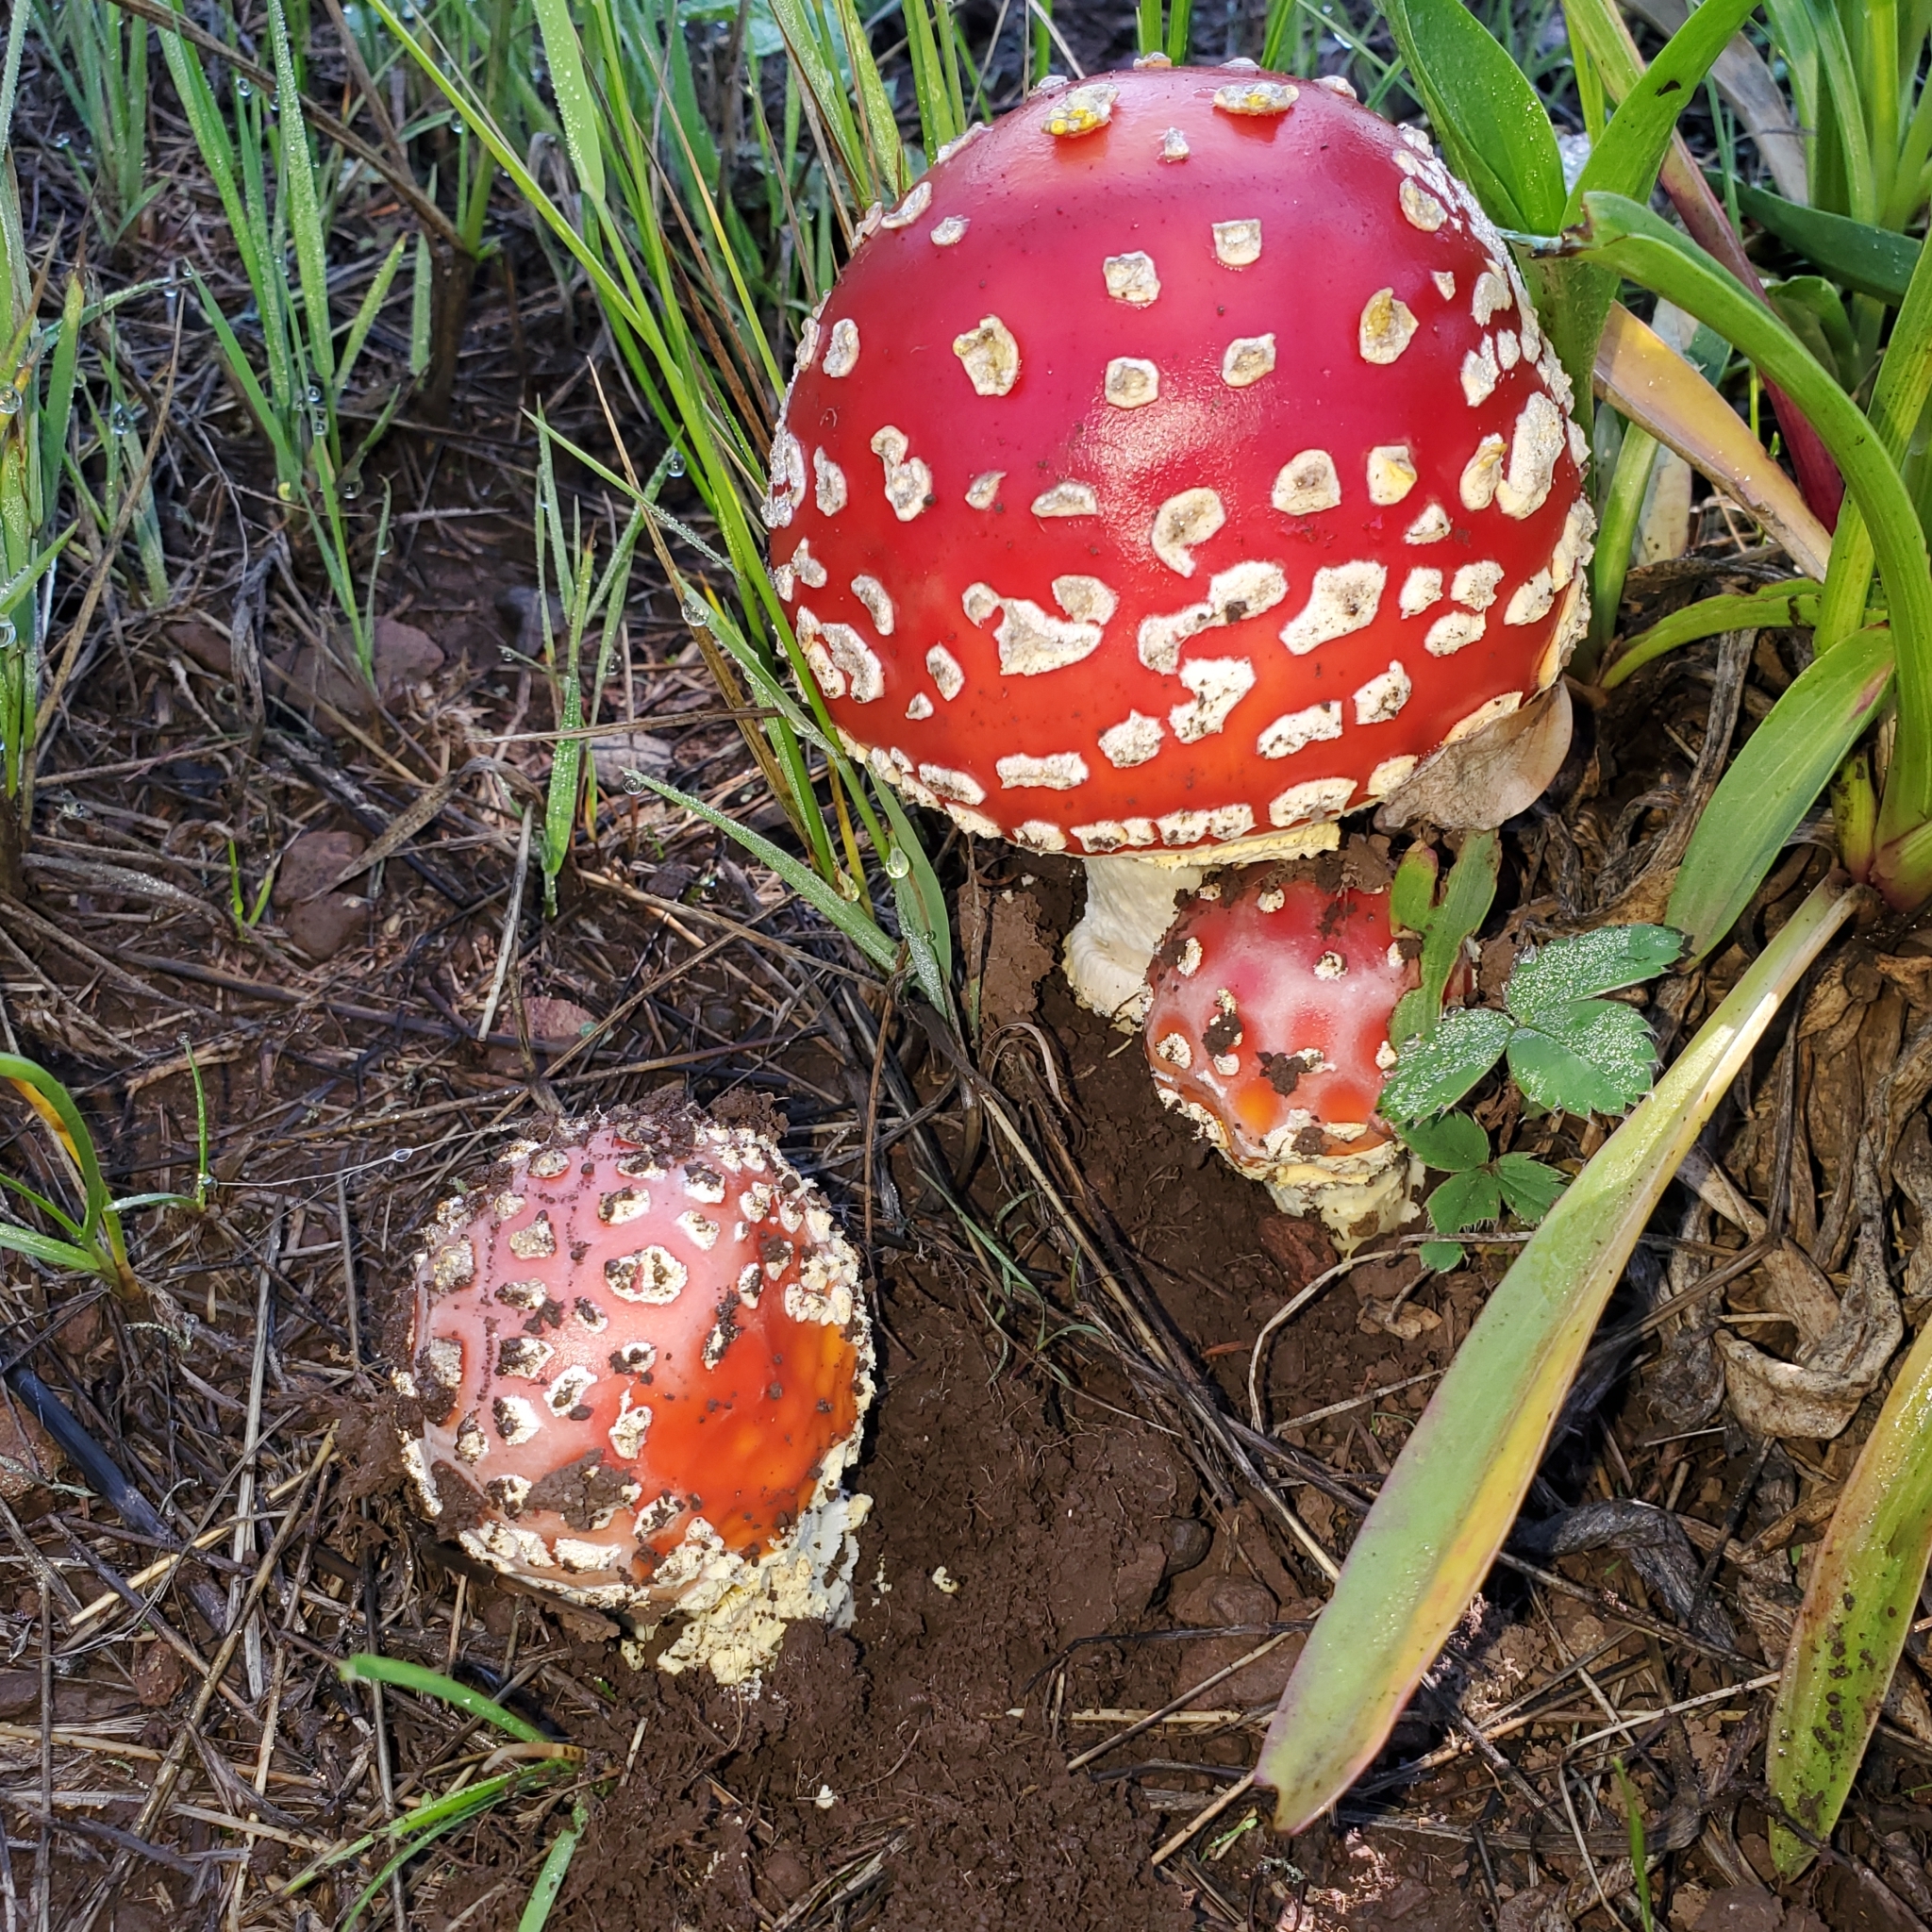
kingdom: Fungi
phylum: Basidiomycota
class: Agaricomycetes
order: Agaricales
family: Amanitaceae
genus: Amanita
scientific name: Amanita muscaria
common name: Fly agaric
